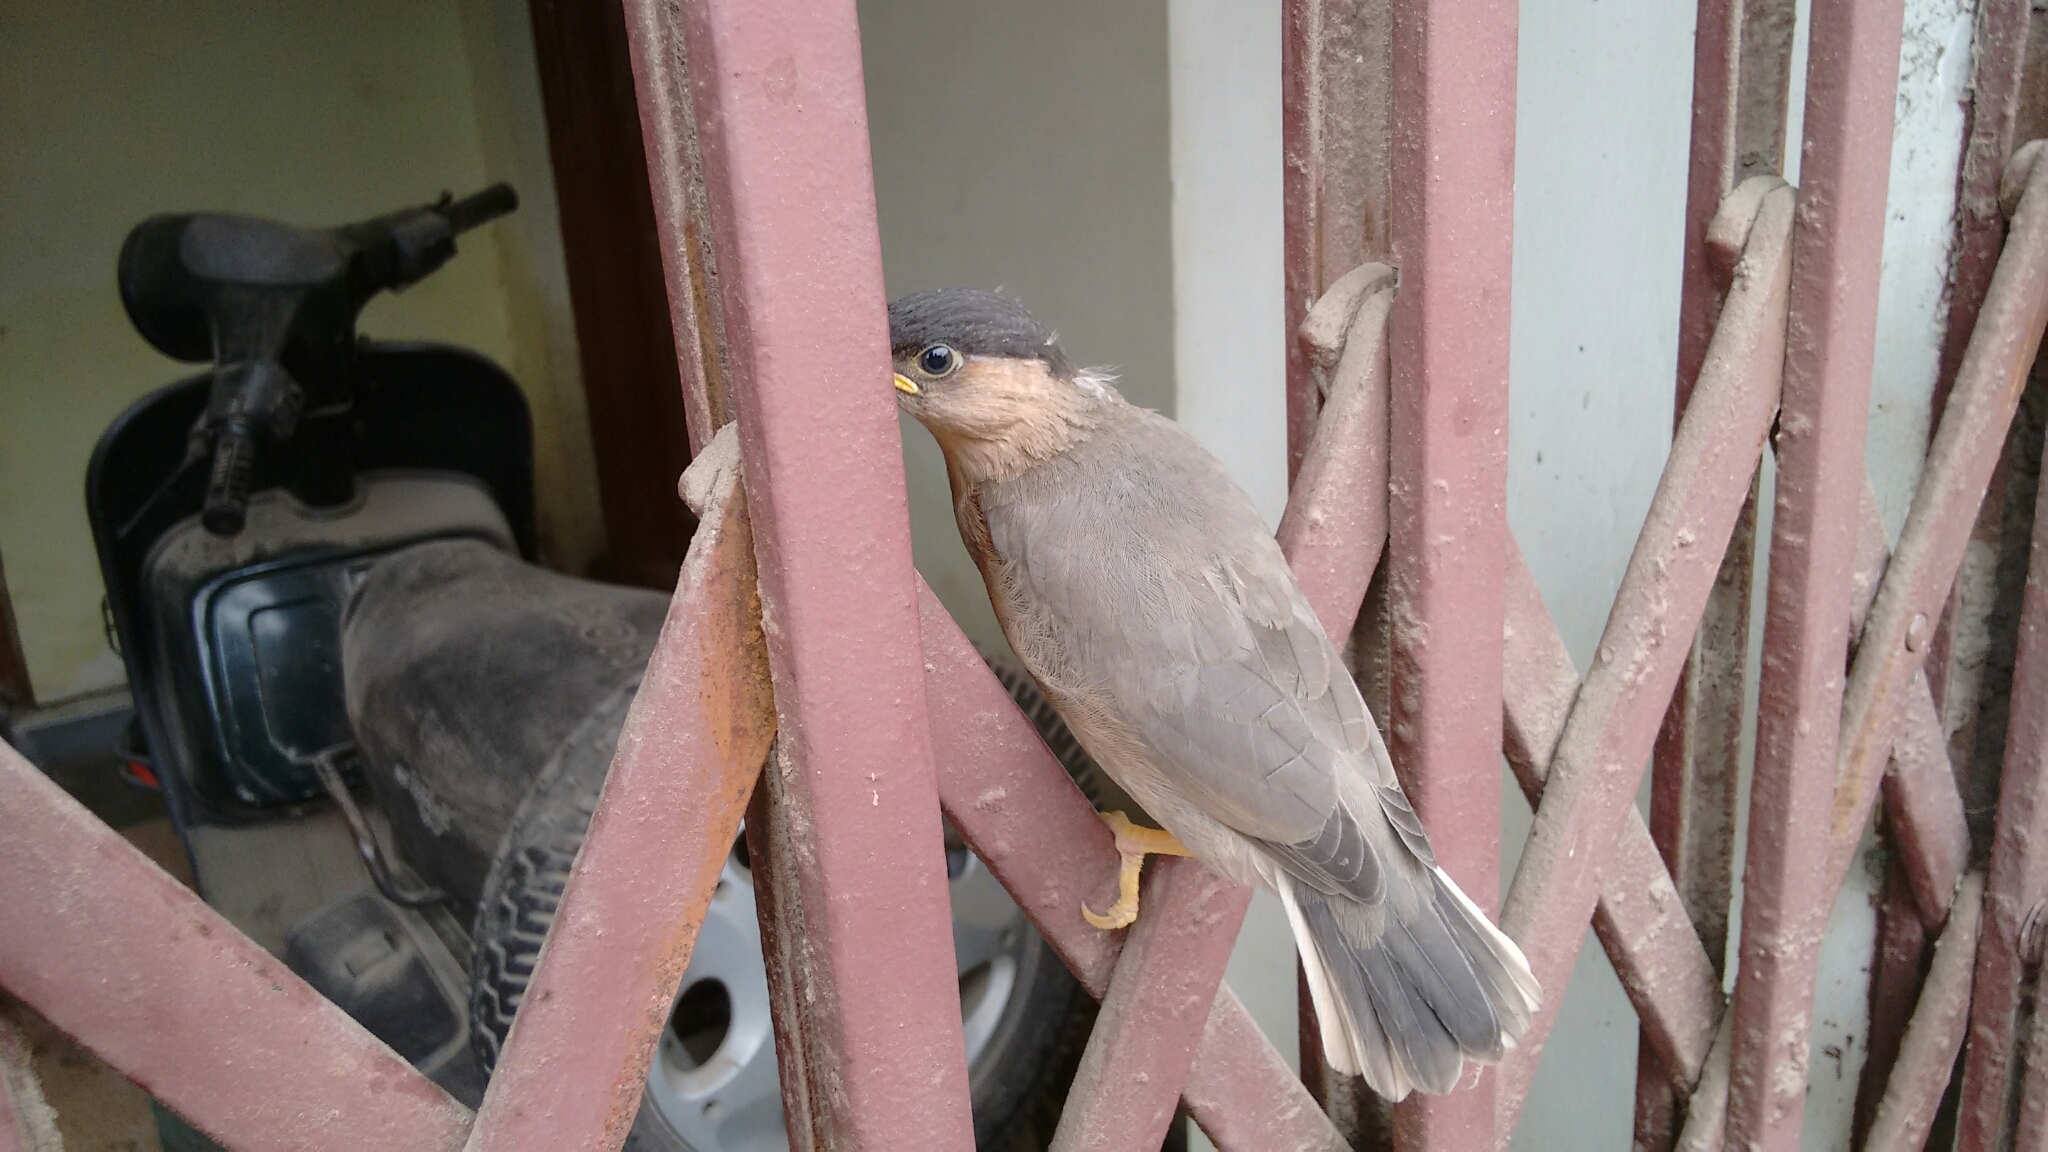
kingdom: Animalia
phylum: Chordata
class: Aves
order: Passeriformes
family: Sturnidae
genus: Sturnia
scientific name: Sturnia pagodarum
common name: Brahminy starling
